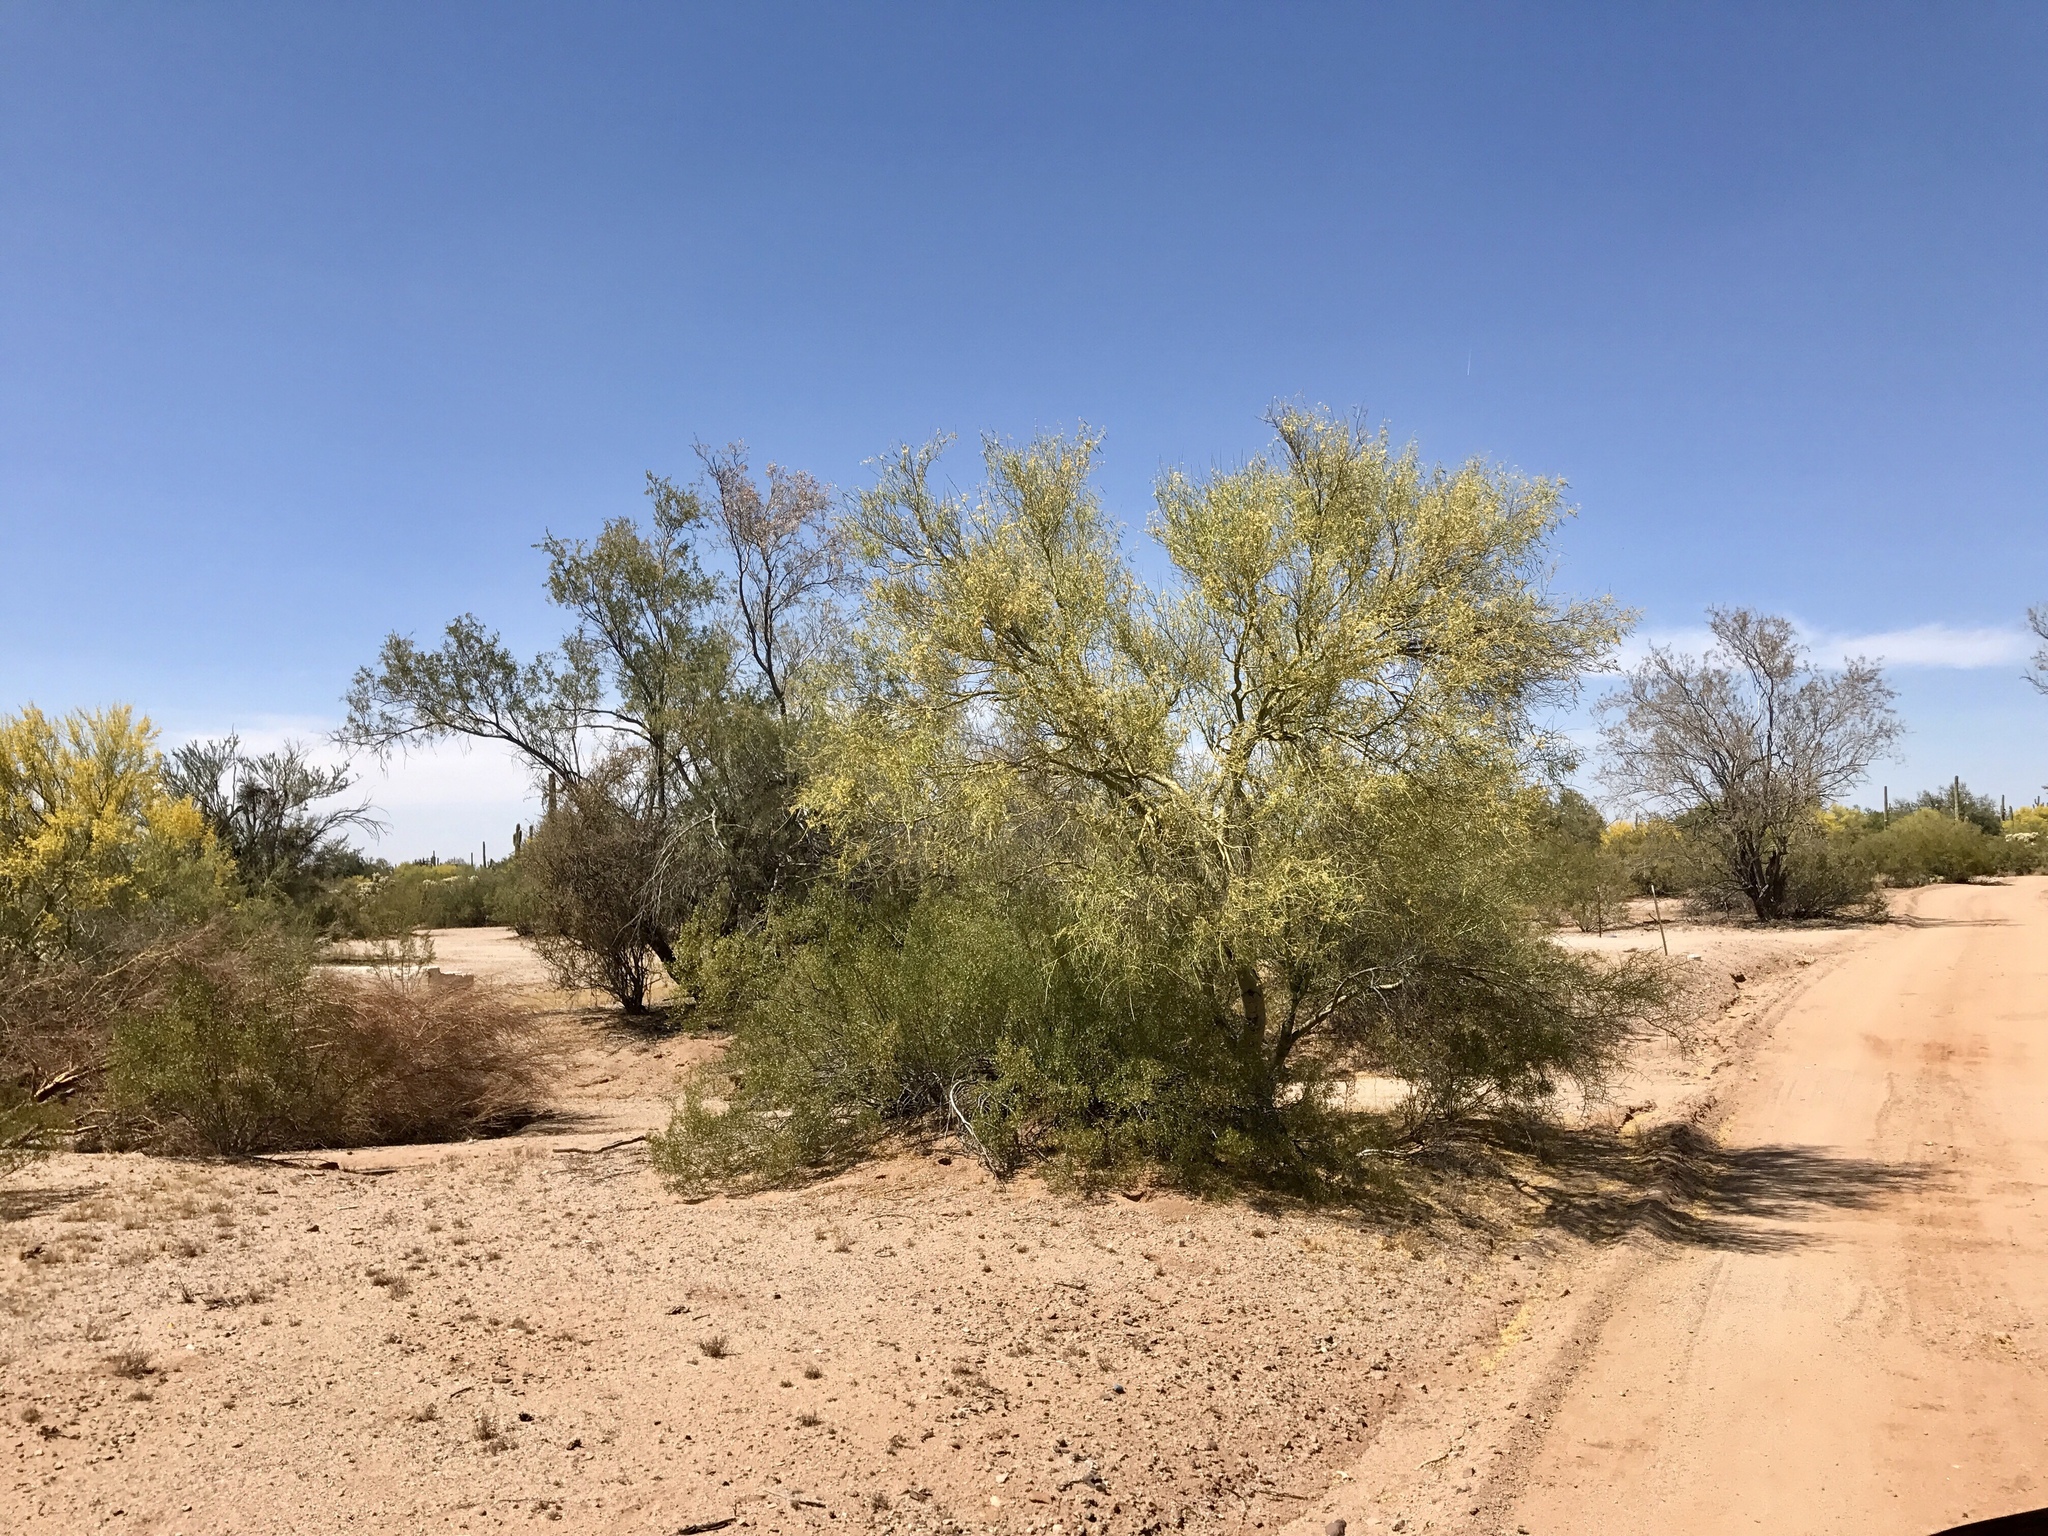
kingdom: Plantae
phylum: Tracheophyta
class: Magnoliopsida
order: Fabales
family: Fabaceae
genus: Parkinsonia
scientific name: Parkinsonia florida
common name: Blue paloverde
